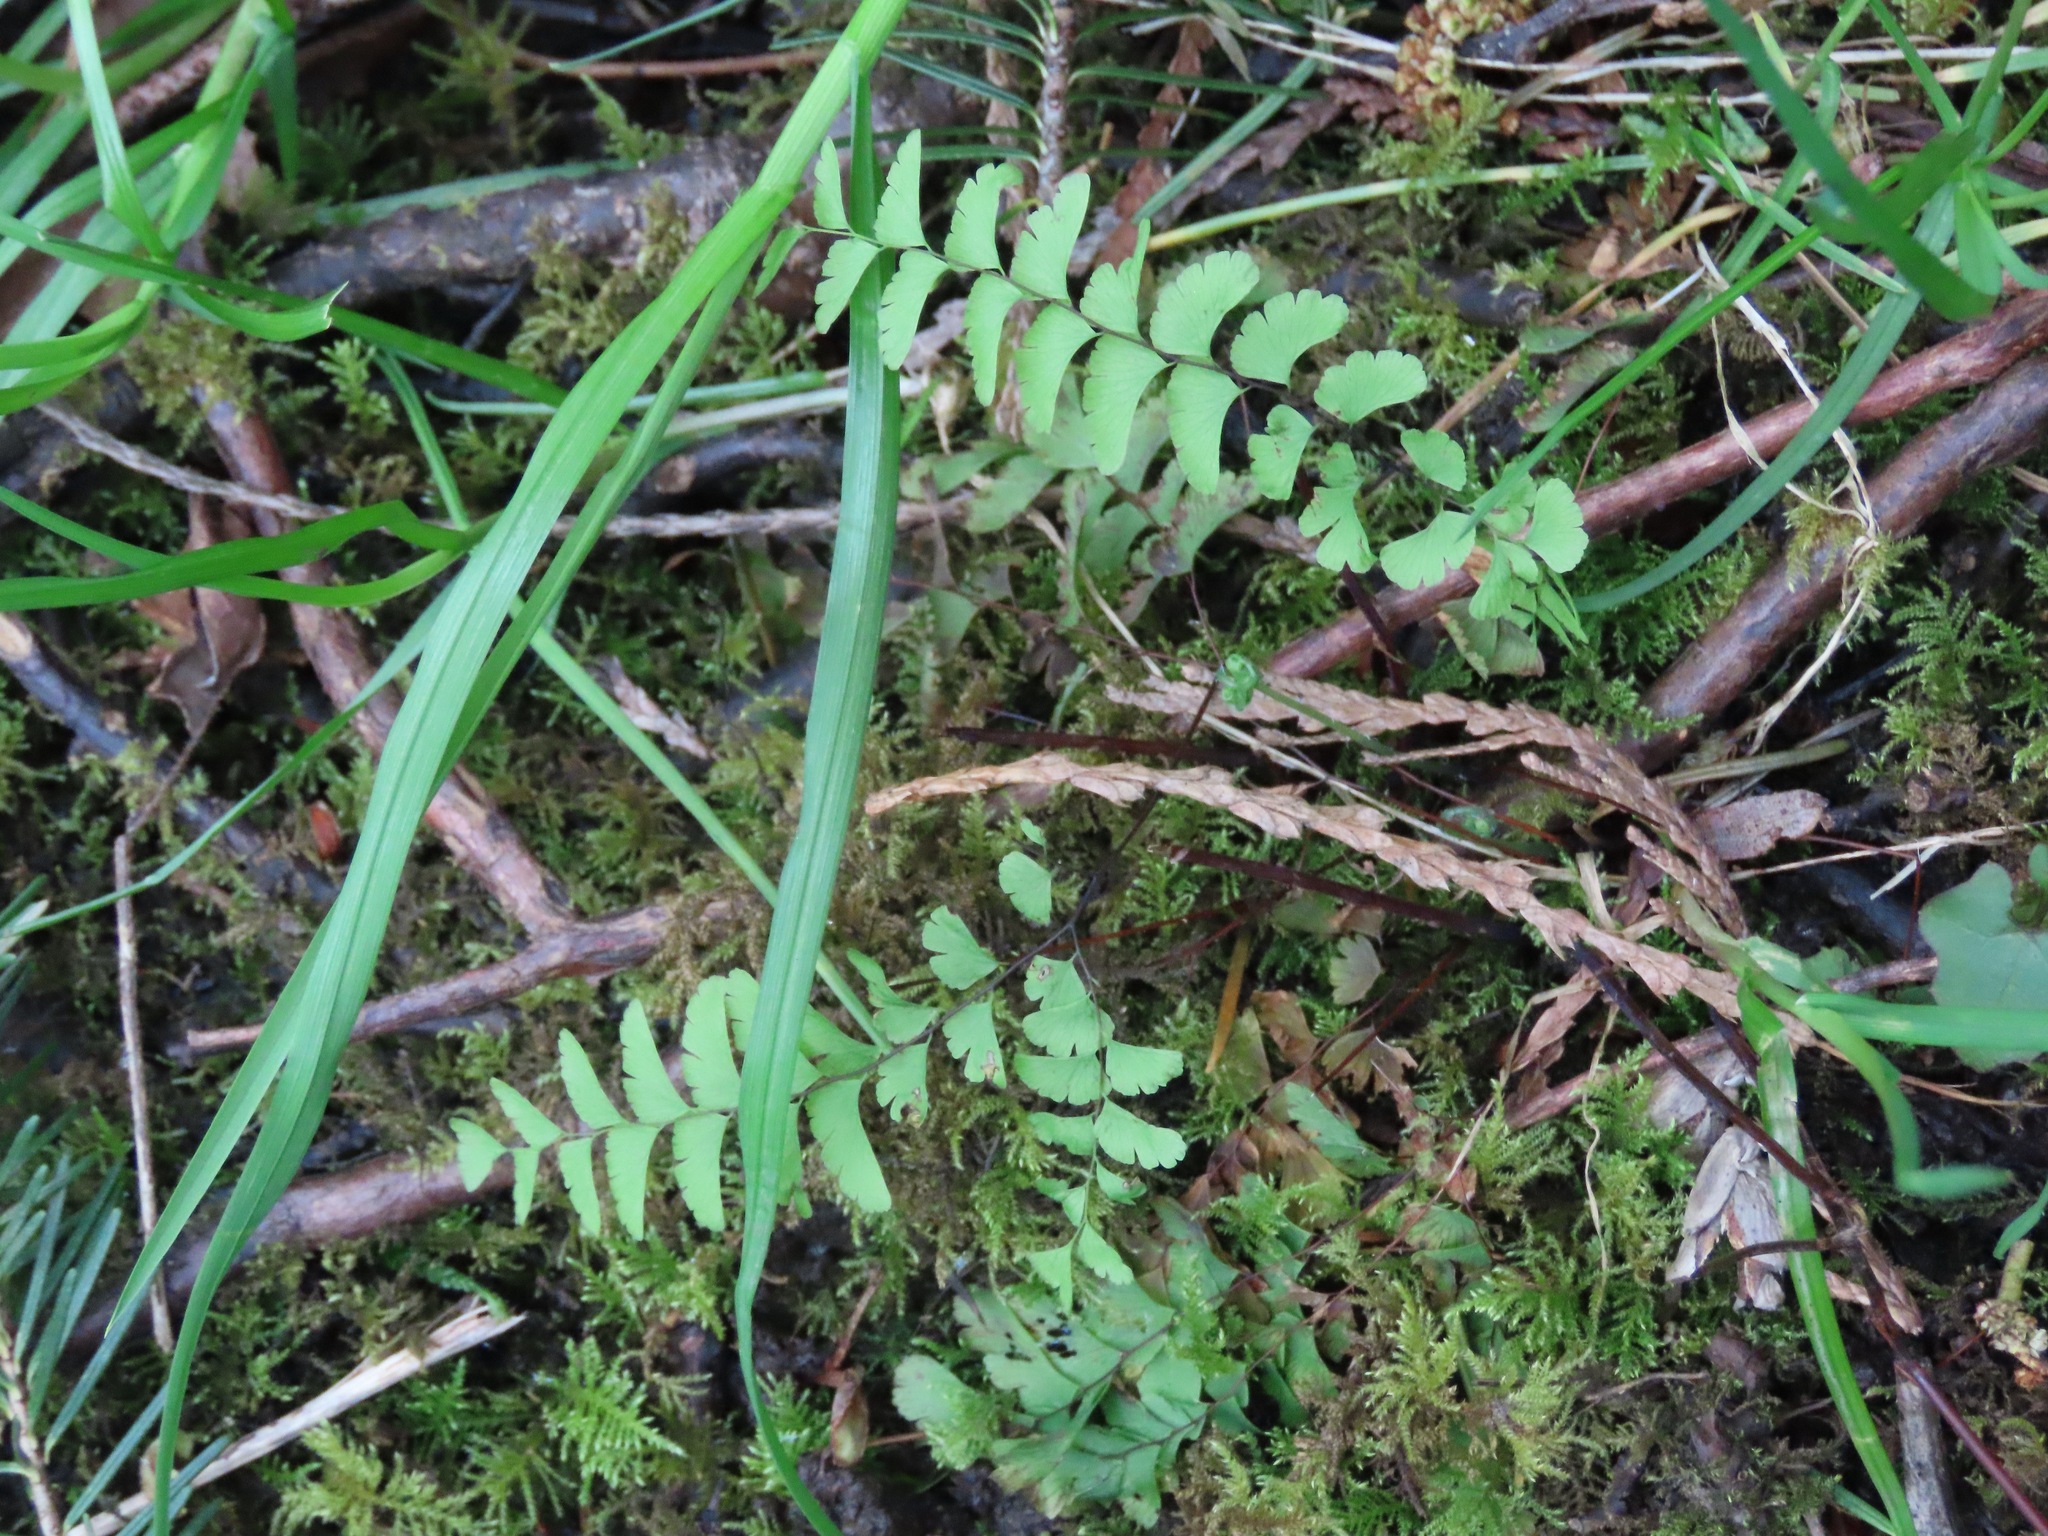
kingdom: Plantae
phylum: Tracheophyta
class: Polypodiopsida
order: Polypodiales
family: Pteridaceae
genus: Adiantum
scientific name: Adiantum aleuticum
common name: Aleutian maidenhair fern
